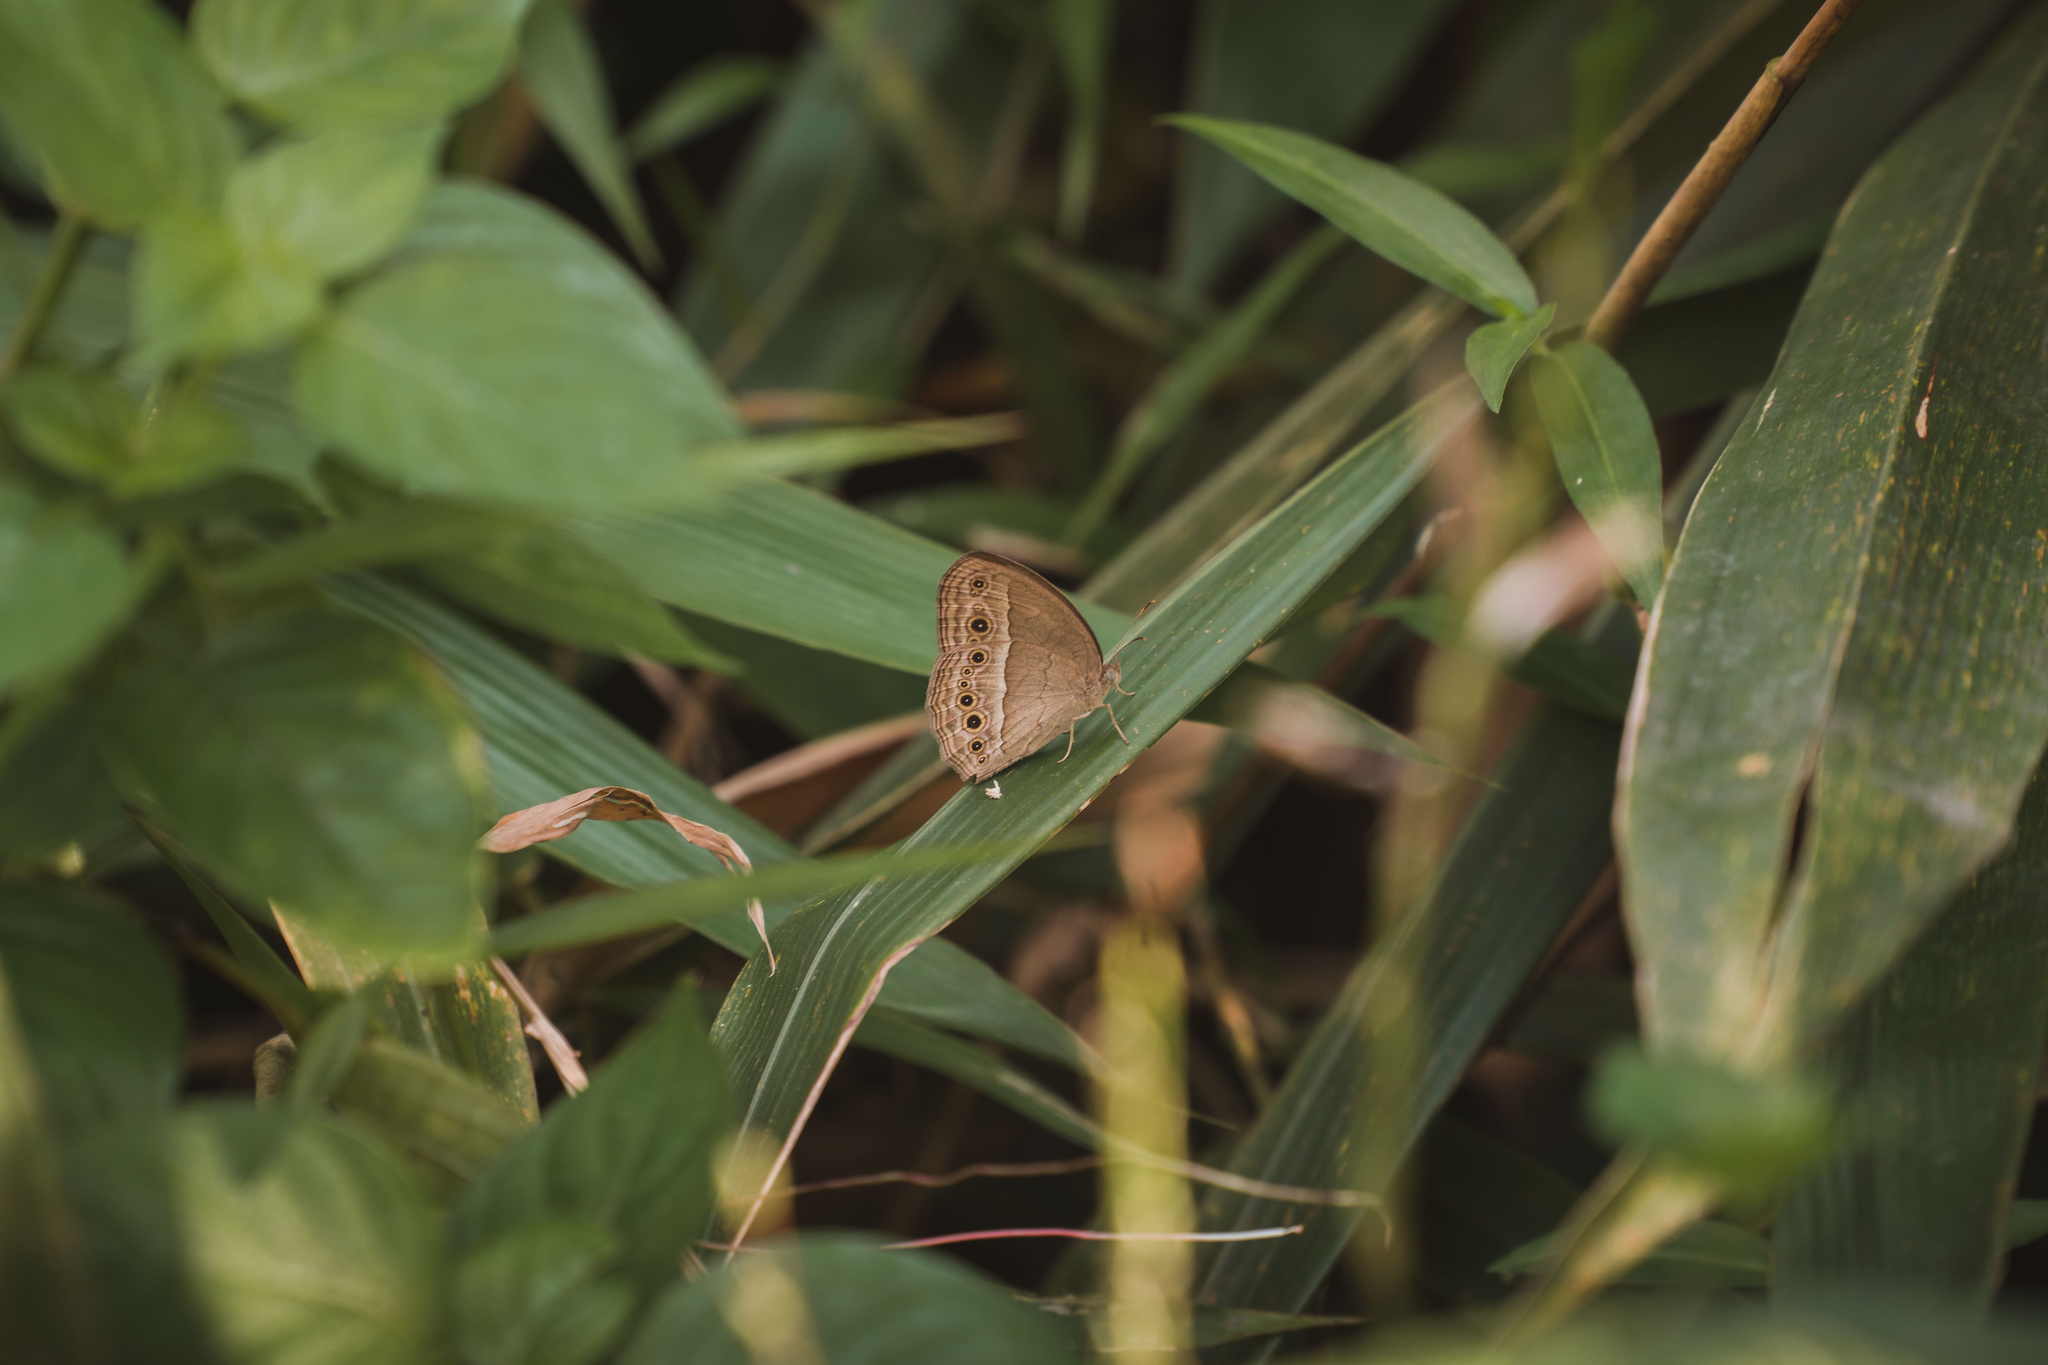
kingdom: Animalia
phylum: Arthropoda
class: Insecta
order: Lepidoptera
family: Nymphalidae
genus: Mycalesis
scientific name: Mycalesis perseoides
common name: Burmese bushbrown
